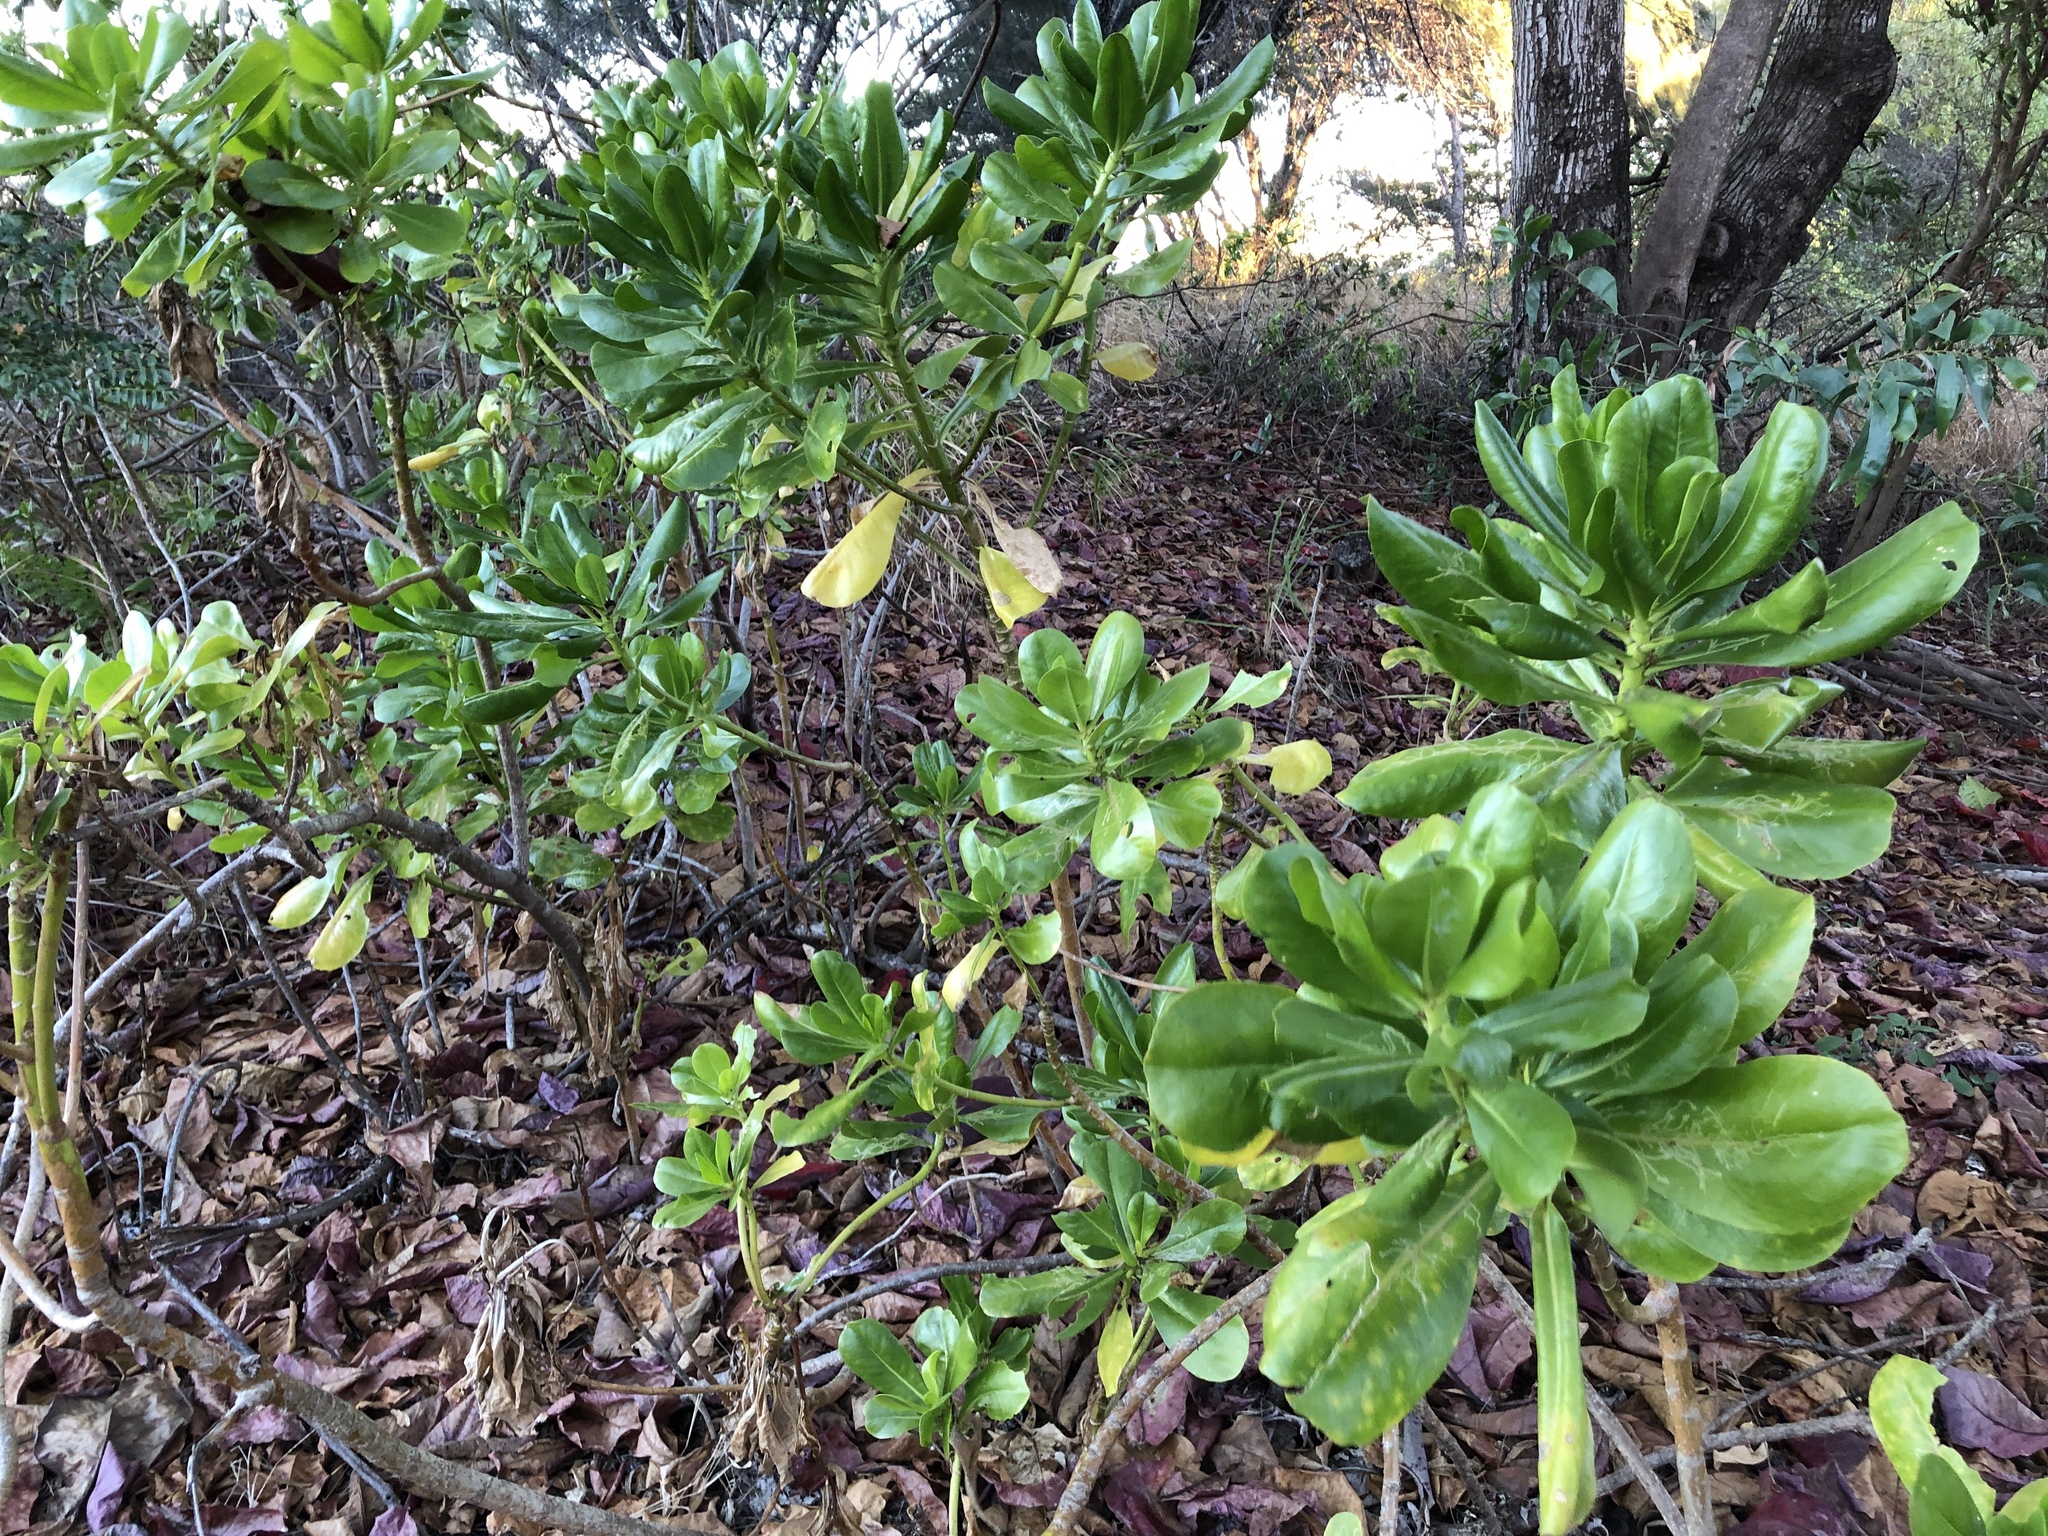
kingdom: Plantae
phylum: Tracheophyta
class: Magnoliopsida
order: Asterales
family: Goodeniaceae
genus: Scaevola
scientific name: Scaevola taccada
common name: Sea lettucetree
